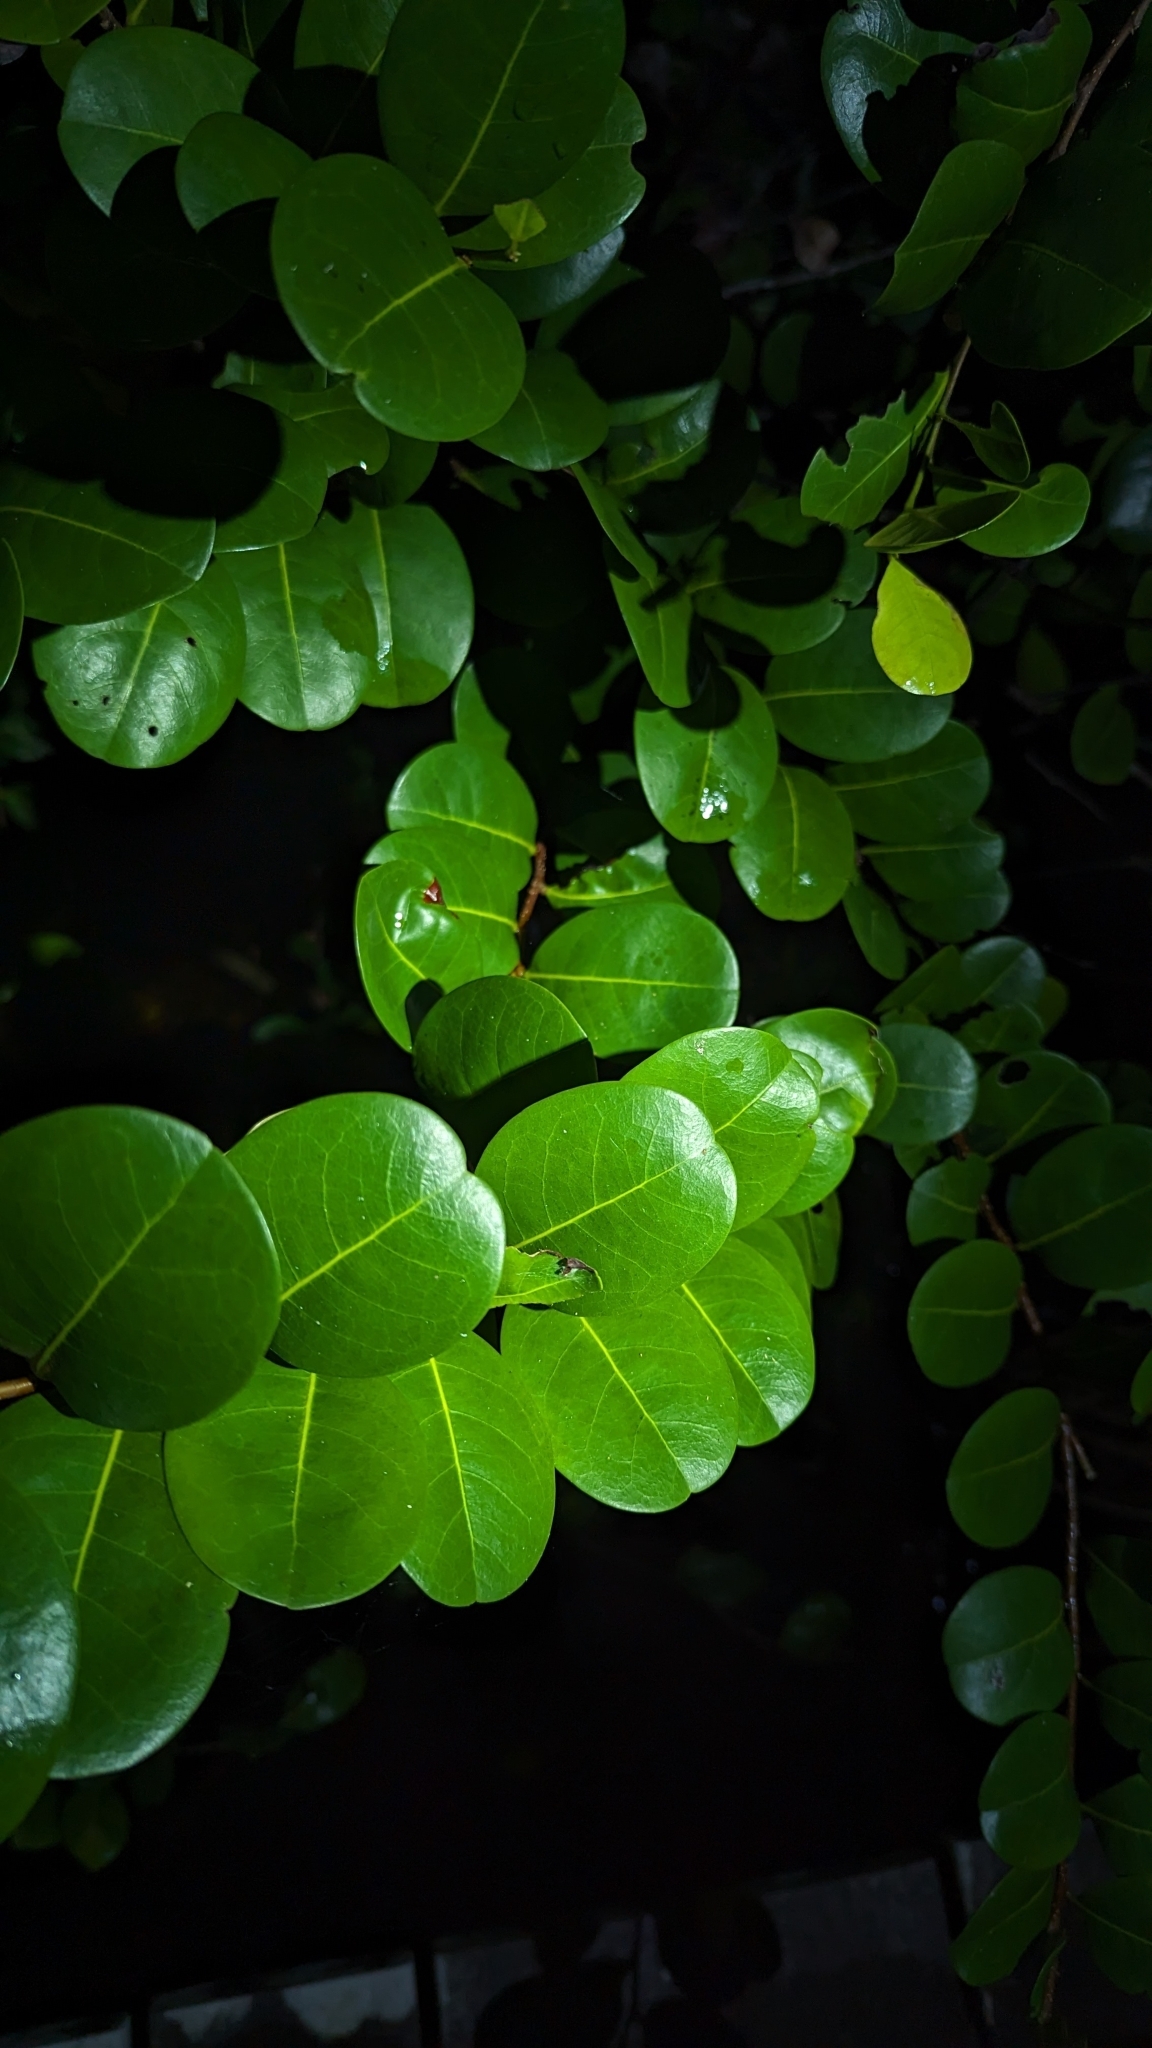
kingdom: Plantae
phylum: Tracheophyta
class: Magnoliopsida
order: Malpighiales
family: Chrysobalanaceae
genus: Chrysobalanus
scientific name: Chrysobalanus icaco
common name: Coco plum
